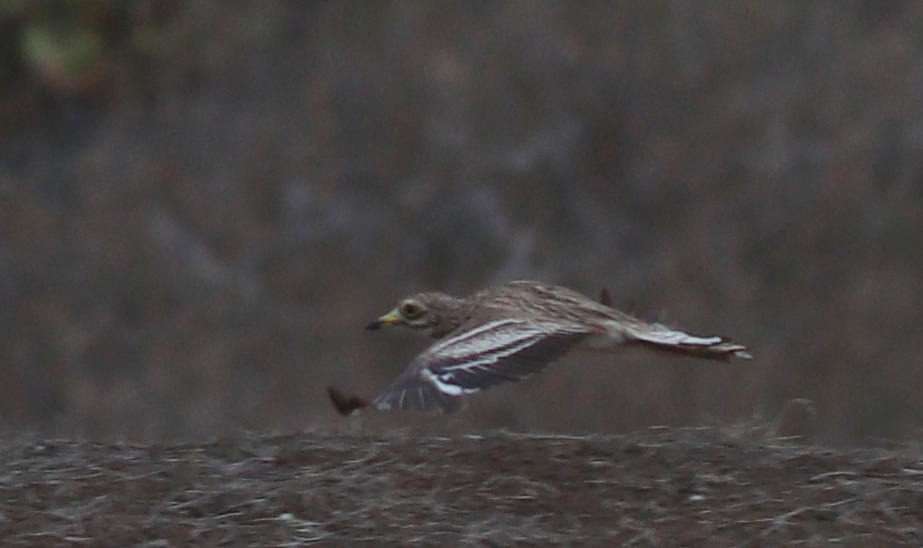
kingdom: Animalia
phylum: Chordata
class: Aves
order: Charadriiformes
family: Burhinidae
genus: Burhinus
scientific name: Burhinus oedicnemus
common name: Eurasian stone-curlew
